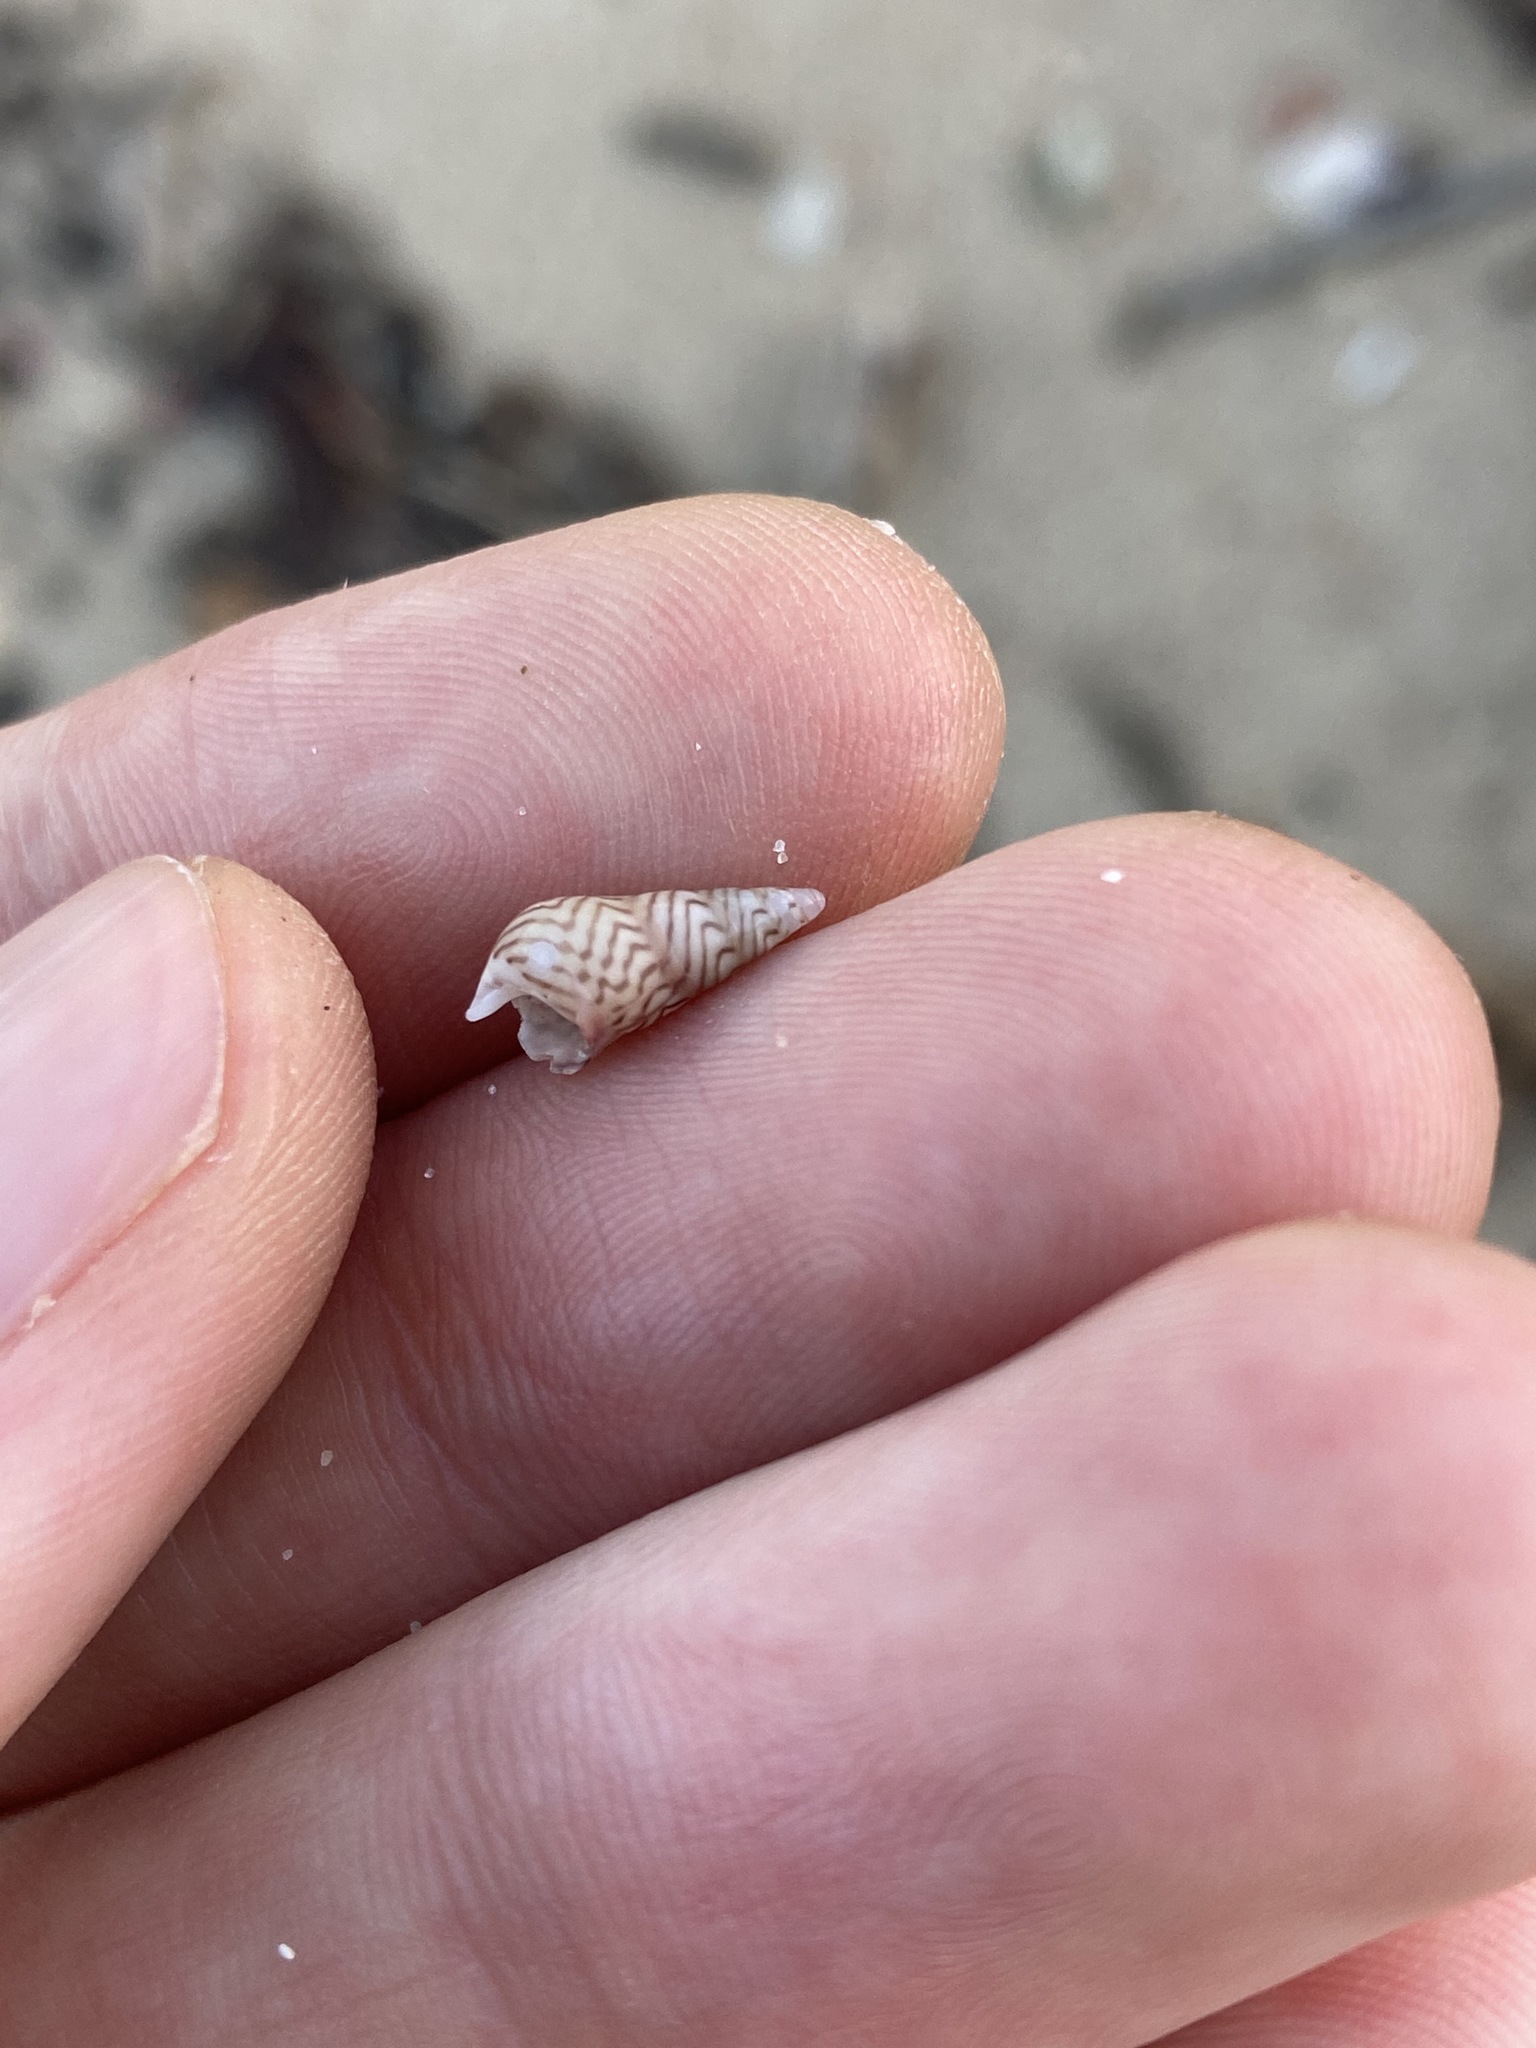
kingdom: Animalia
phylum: Mollusca
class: Gastropoda
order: Trochida
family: Trochidae
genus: Bankivia
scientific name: Bankivia fasciata
